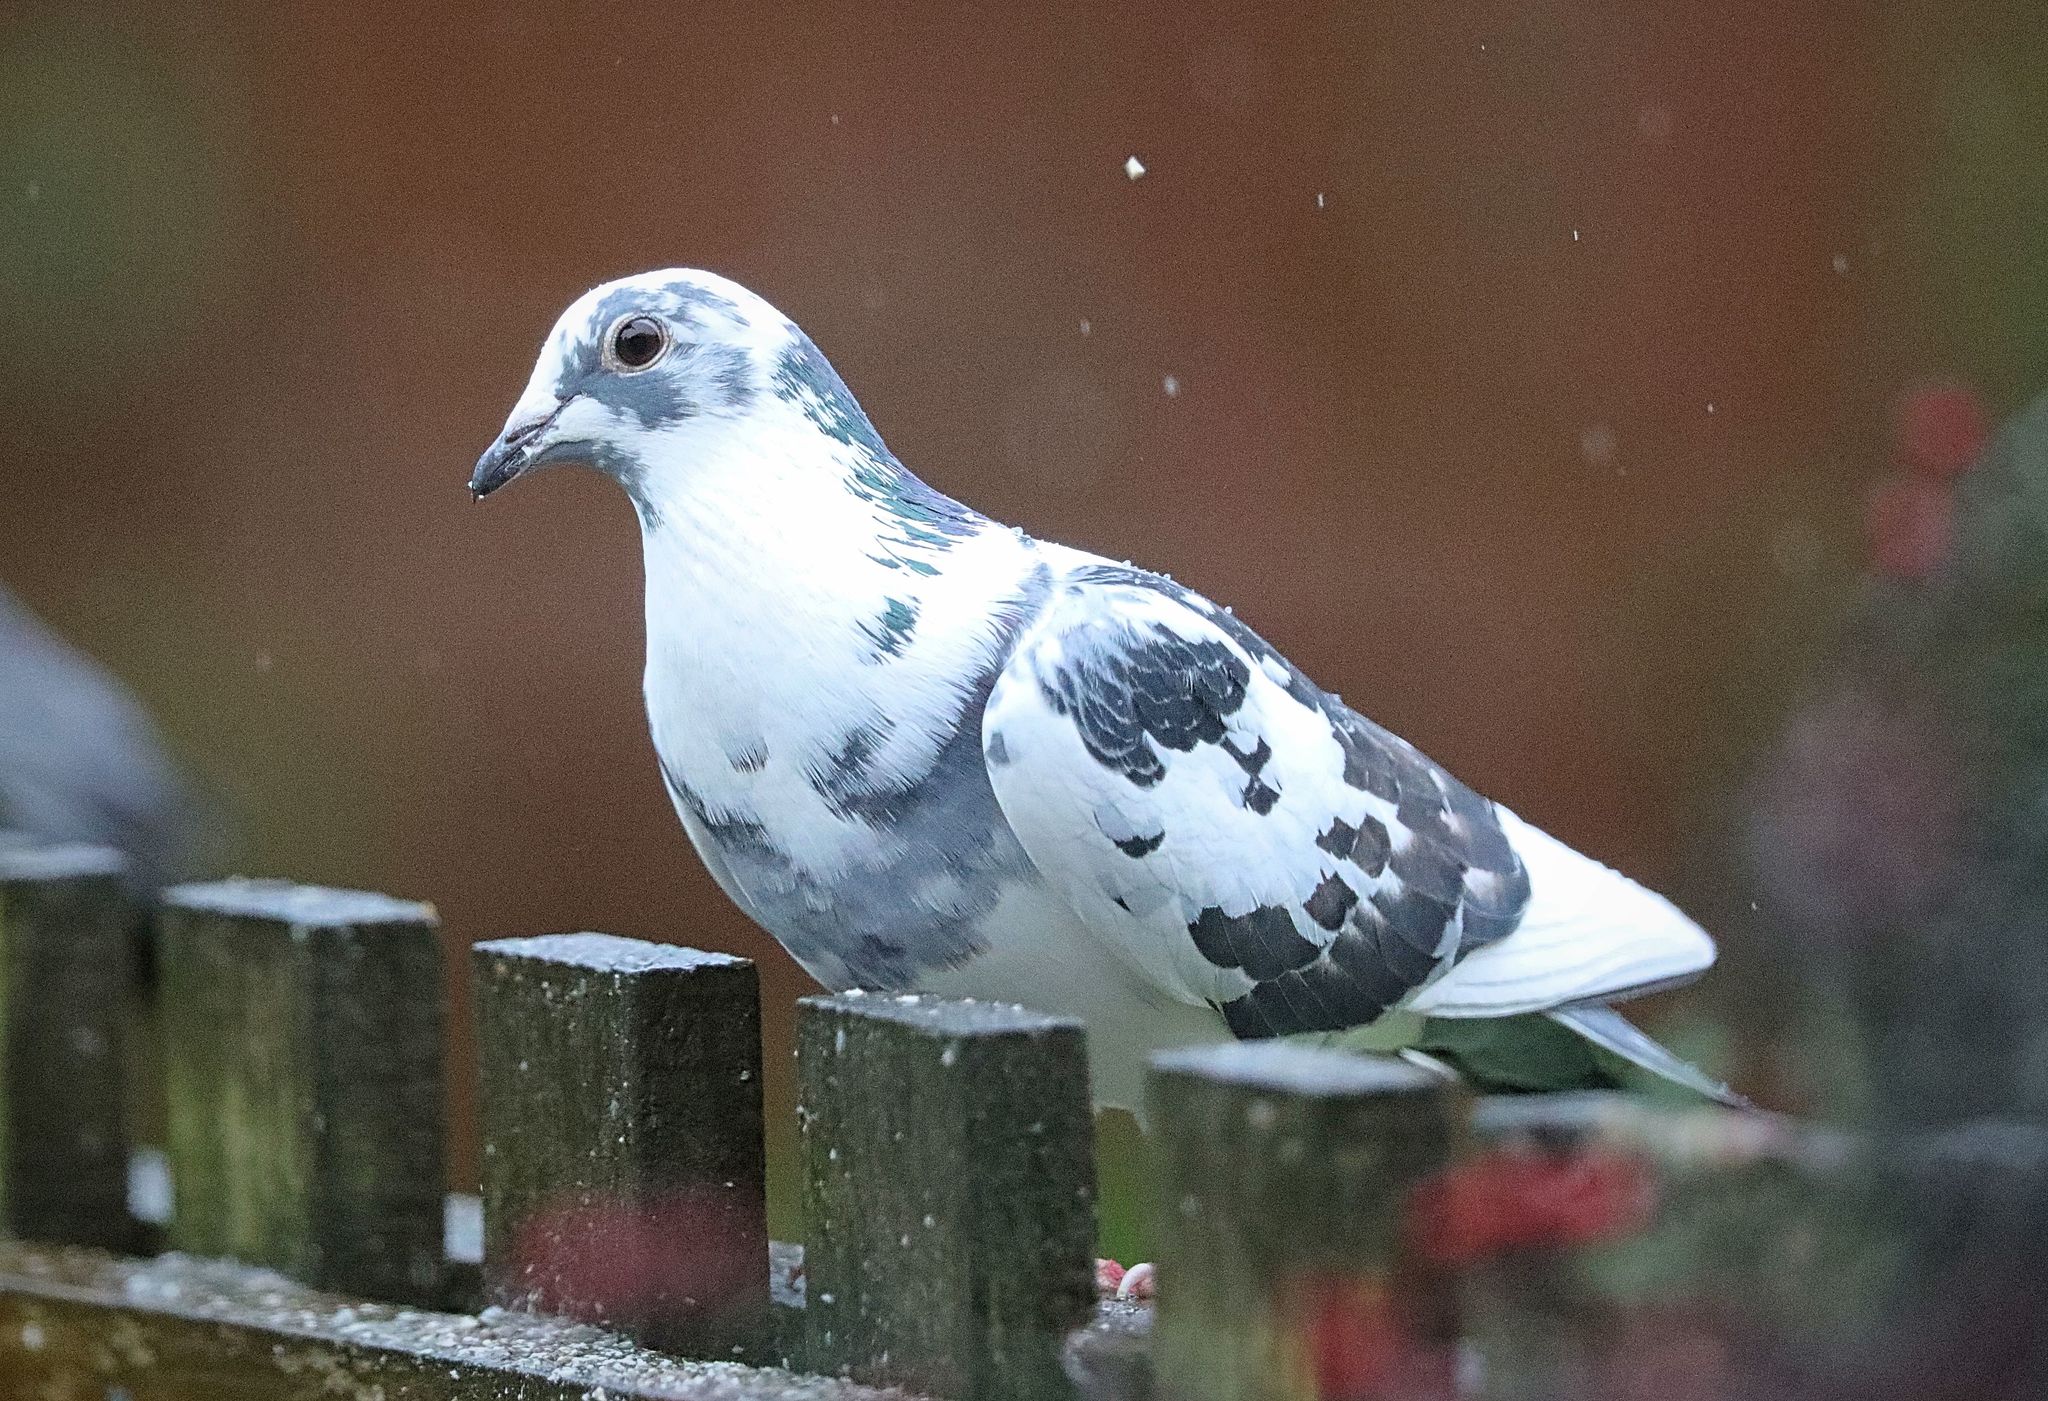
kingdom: Animalia
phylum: Chordata
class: Aves
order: Columbiformes
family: Columbidae
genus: Columba
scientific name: Columba livia
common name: Rock pigeon
